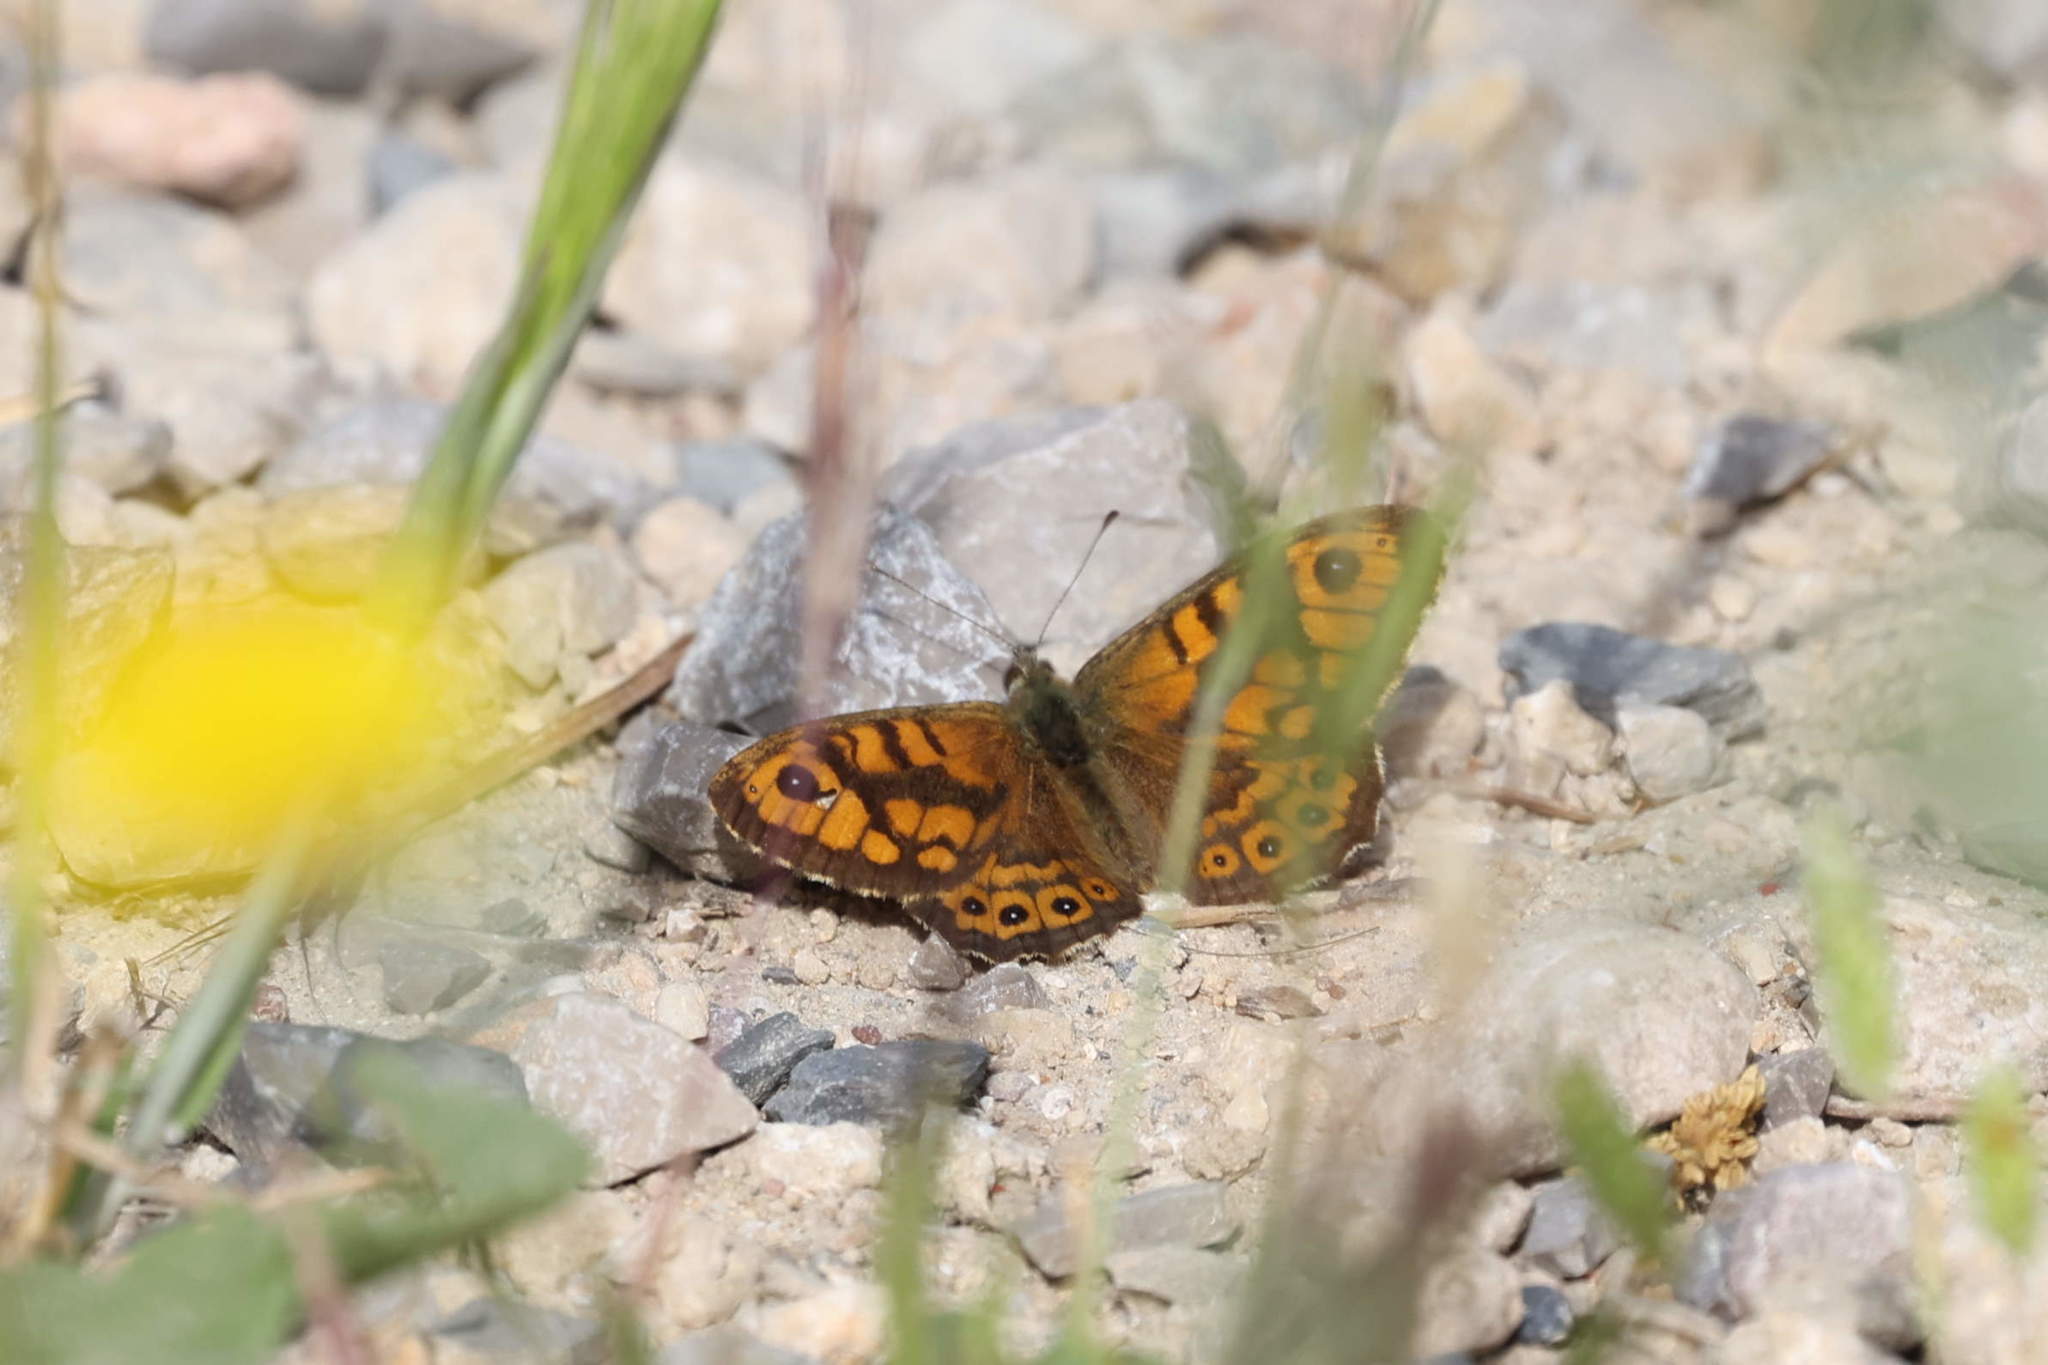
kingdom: Animalia
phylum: Arthropoda
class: Insecta
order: Lepidoptera
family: Nymphalidae
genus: Pararge
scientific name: Pararge Lasiommata megera
